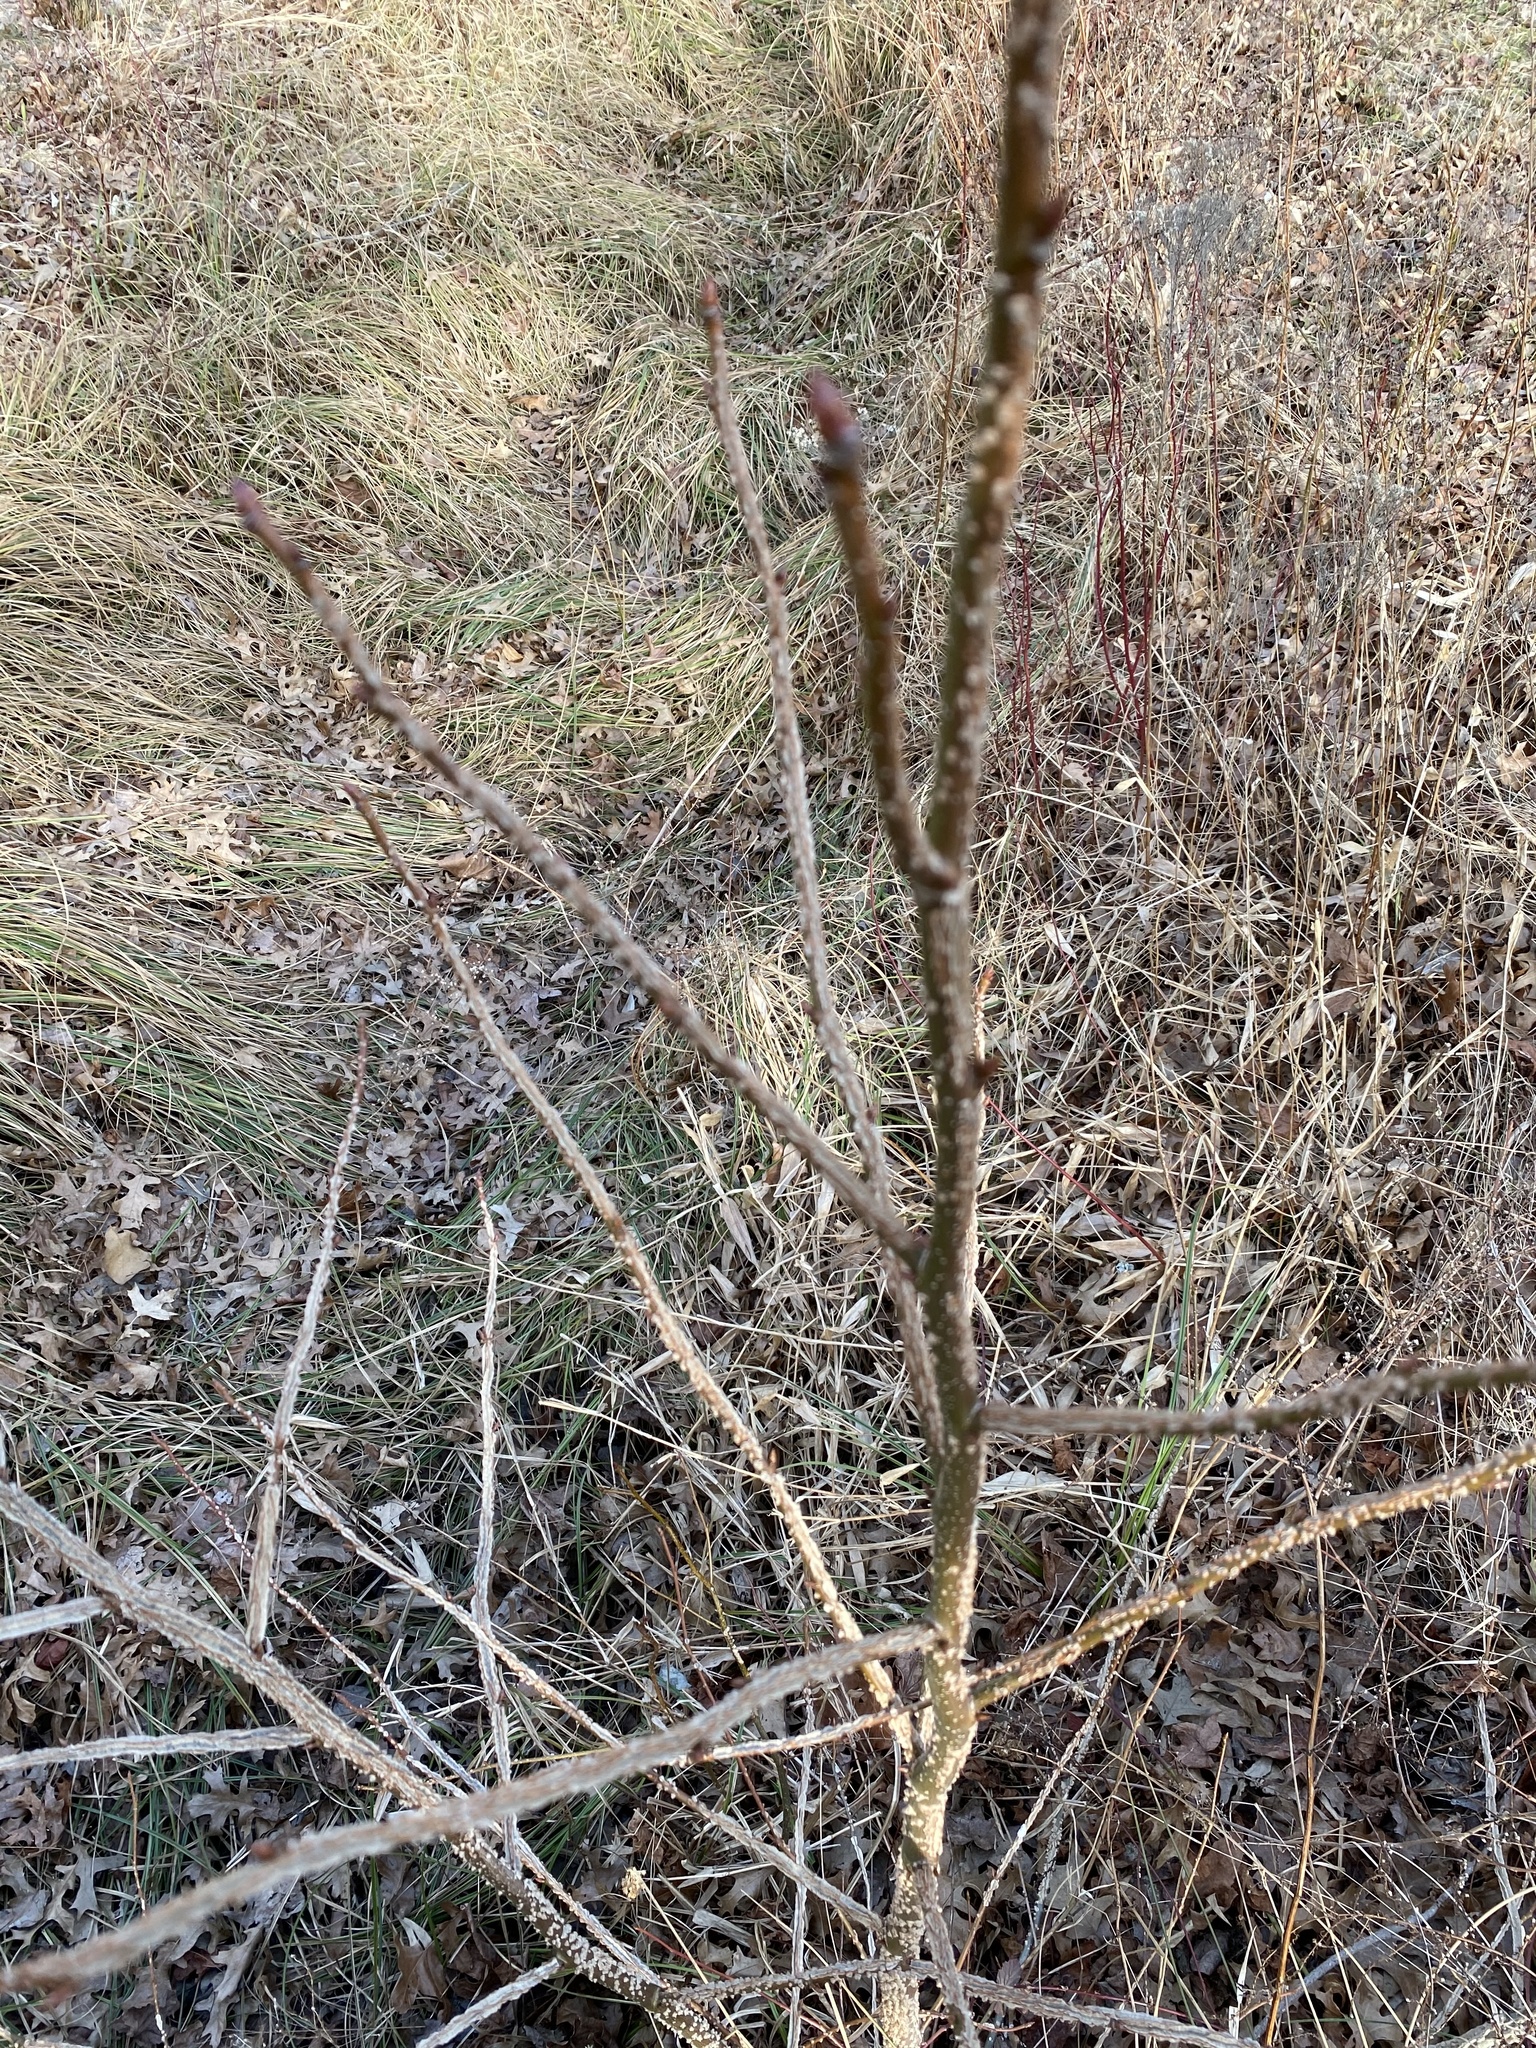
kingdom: Plantae
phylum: Tracheophyta
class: Magnoliopsida
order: Saxifragales
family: Altingiaceae
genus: Liquidambar
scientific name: Liquidambar styraciflua
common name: Sweet gum
